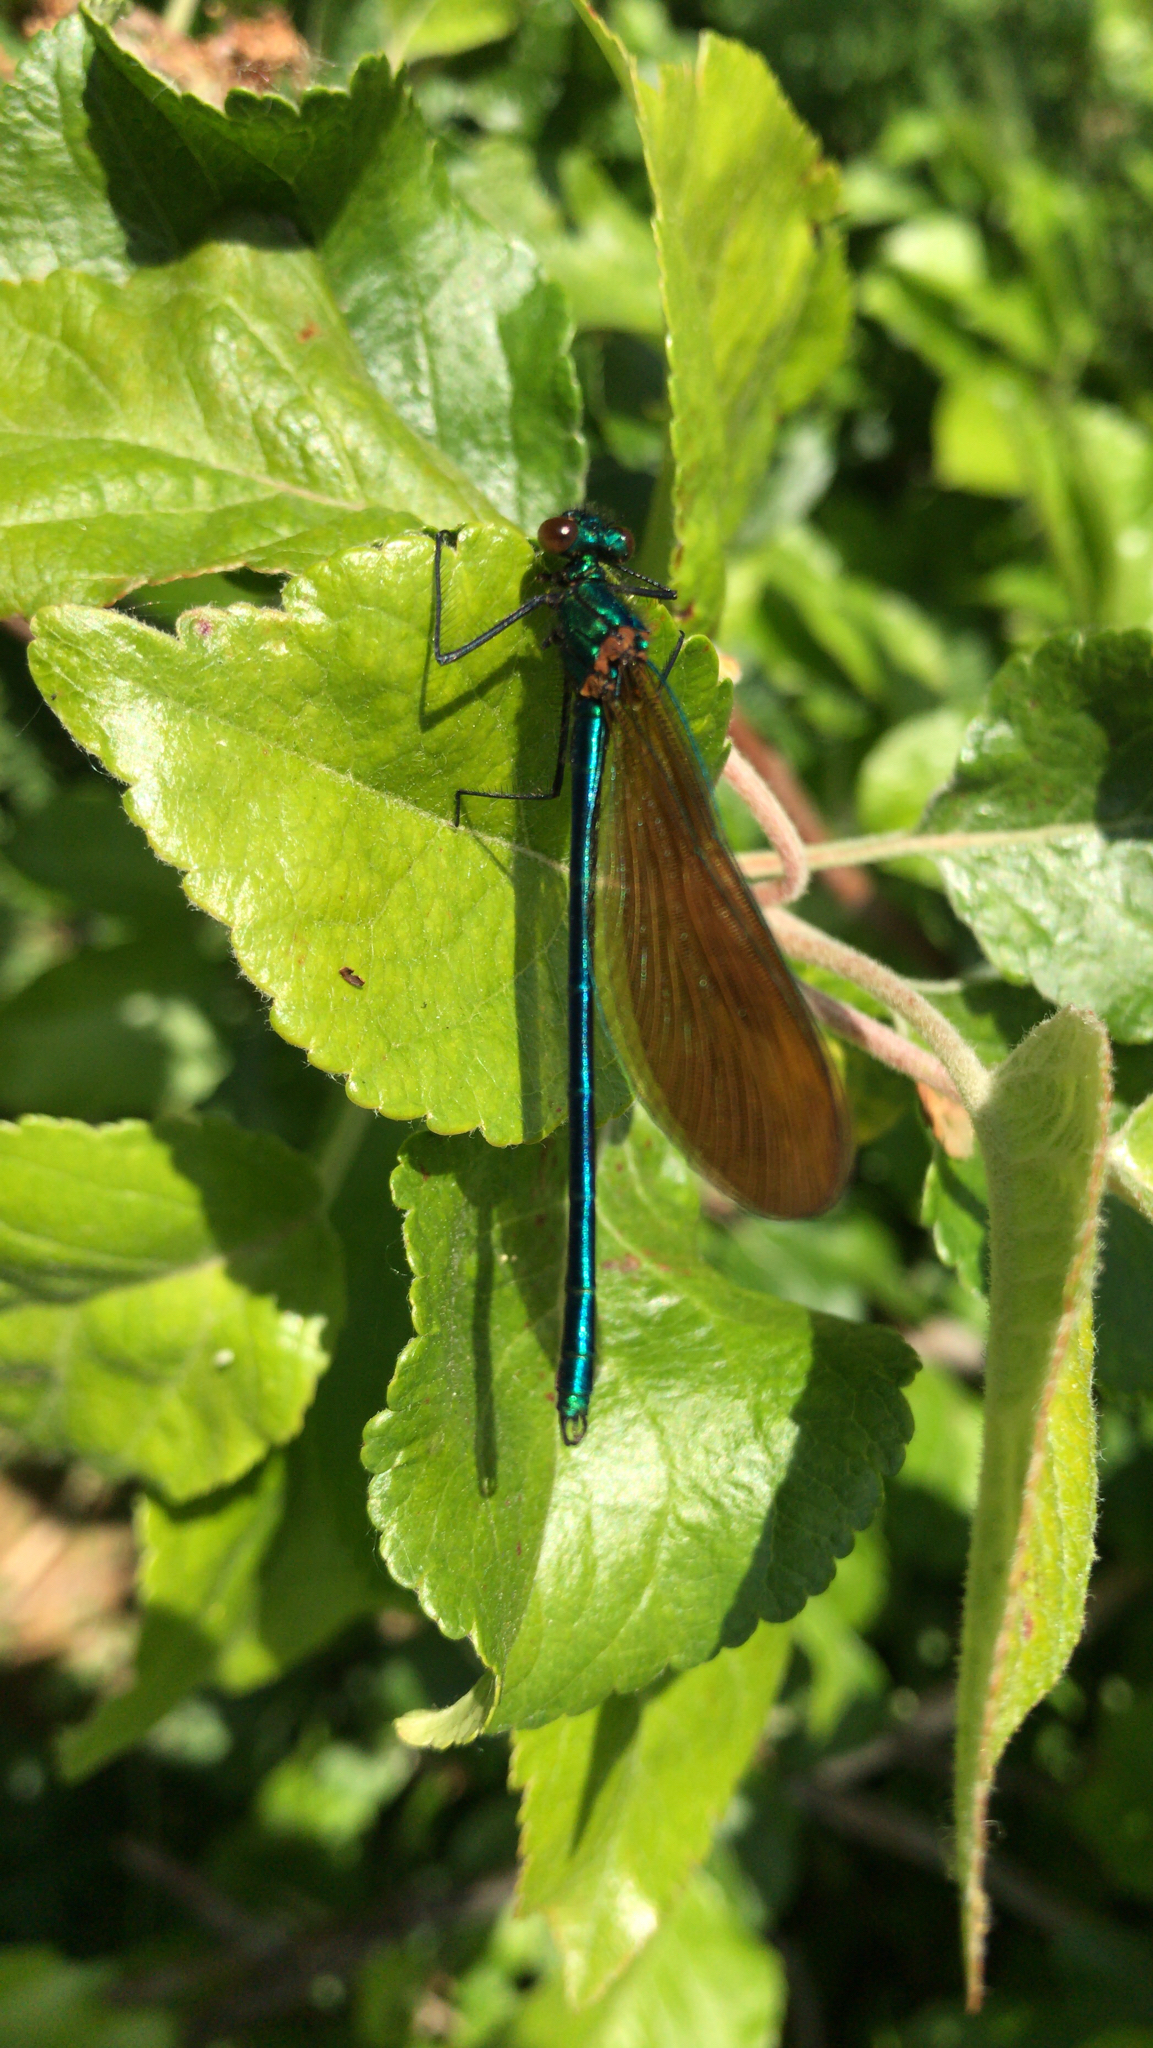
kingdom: Animalia
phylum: Arthropoda
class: Insecta
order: Odonata
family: Calopterygidae
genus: Calopteryx
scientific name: Calopteryx virgo
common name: Beautiful demoiselle
